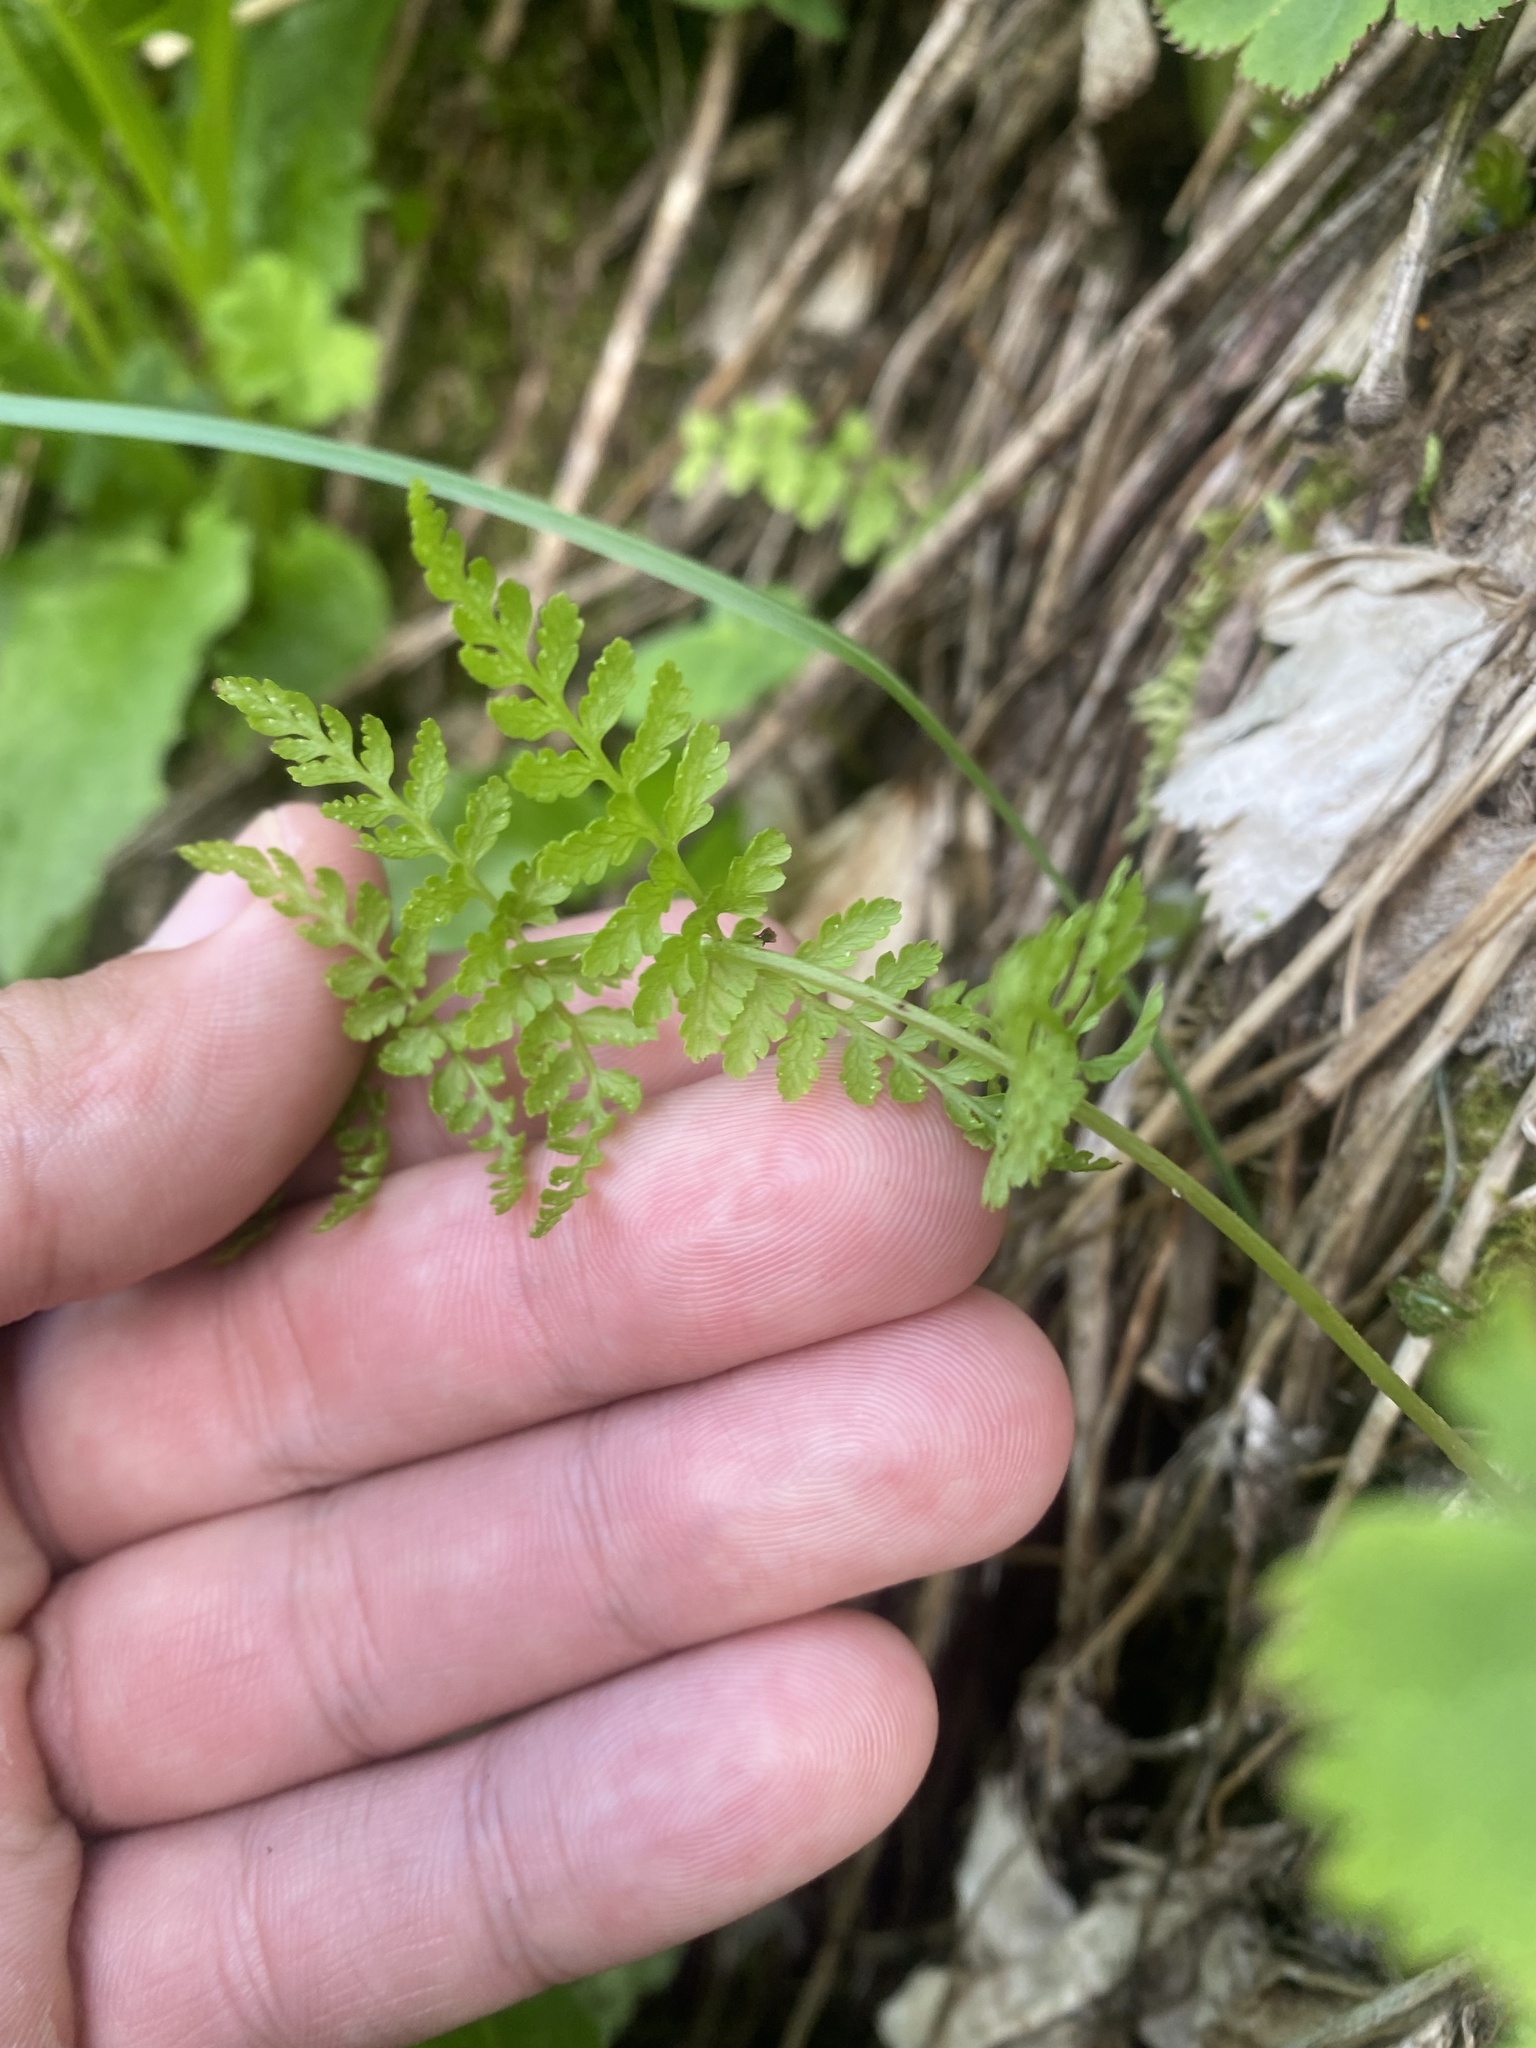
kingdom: Plantae
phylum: Tracheophyta
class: Polypodiopsida
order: Polypodiales
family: Cystopteridaceae
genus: Cystopteris
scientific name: Cystopteris fragilis
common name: Brittle bladder fern
